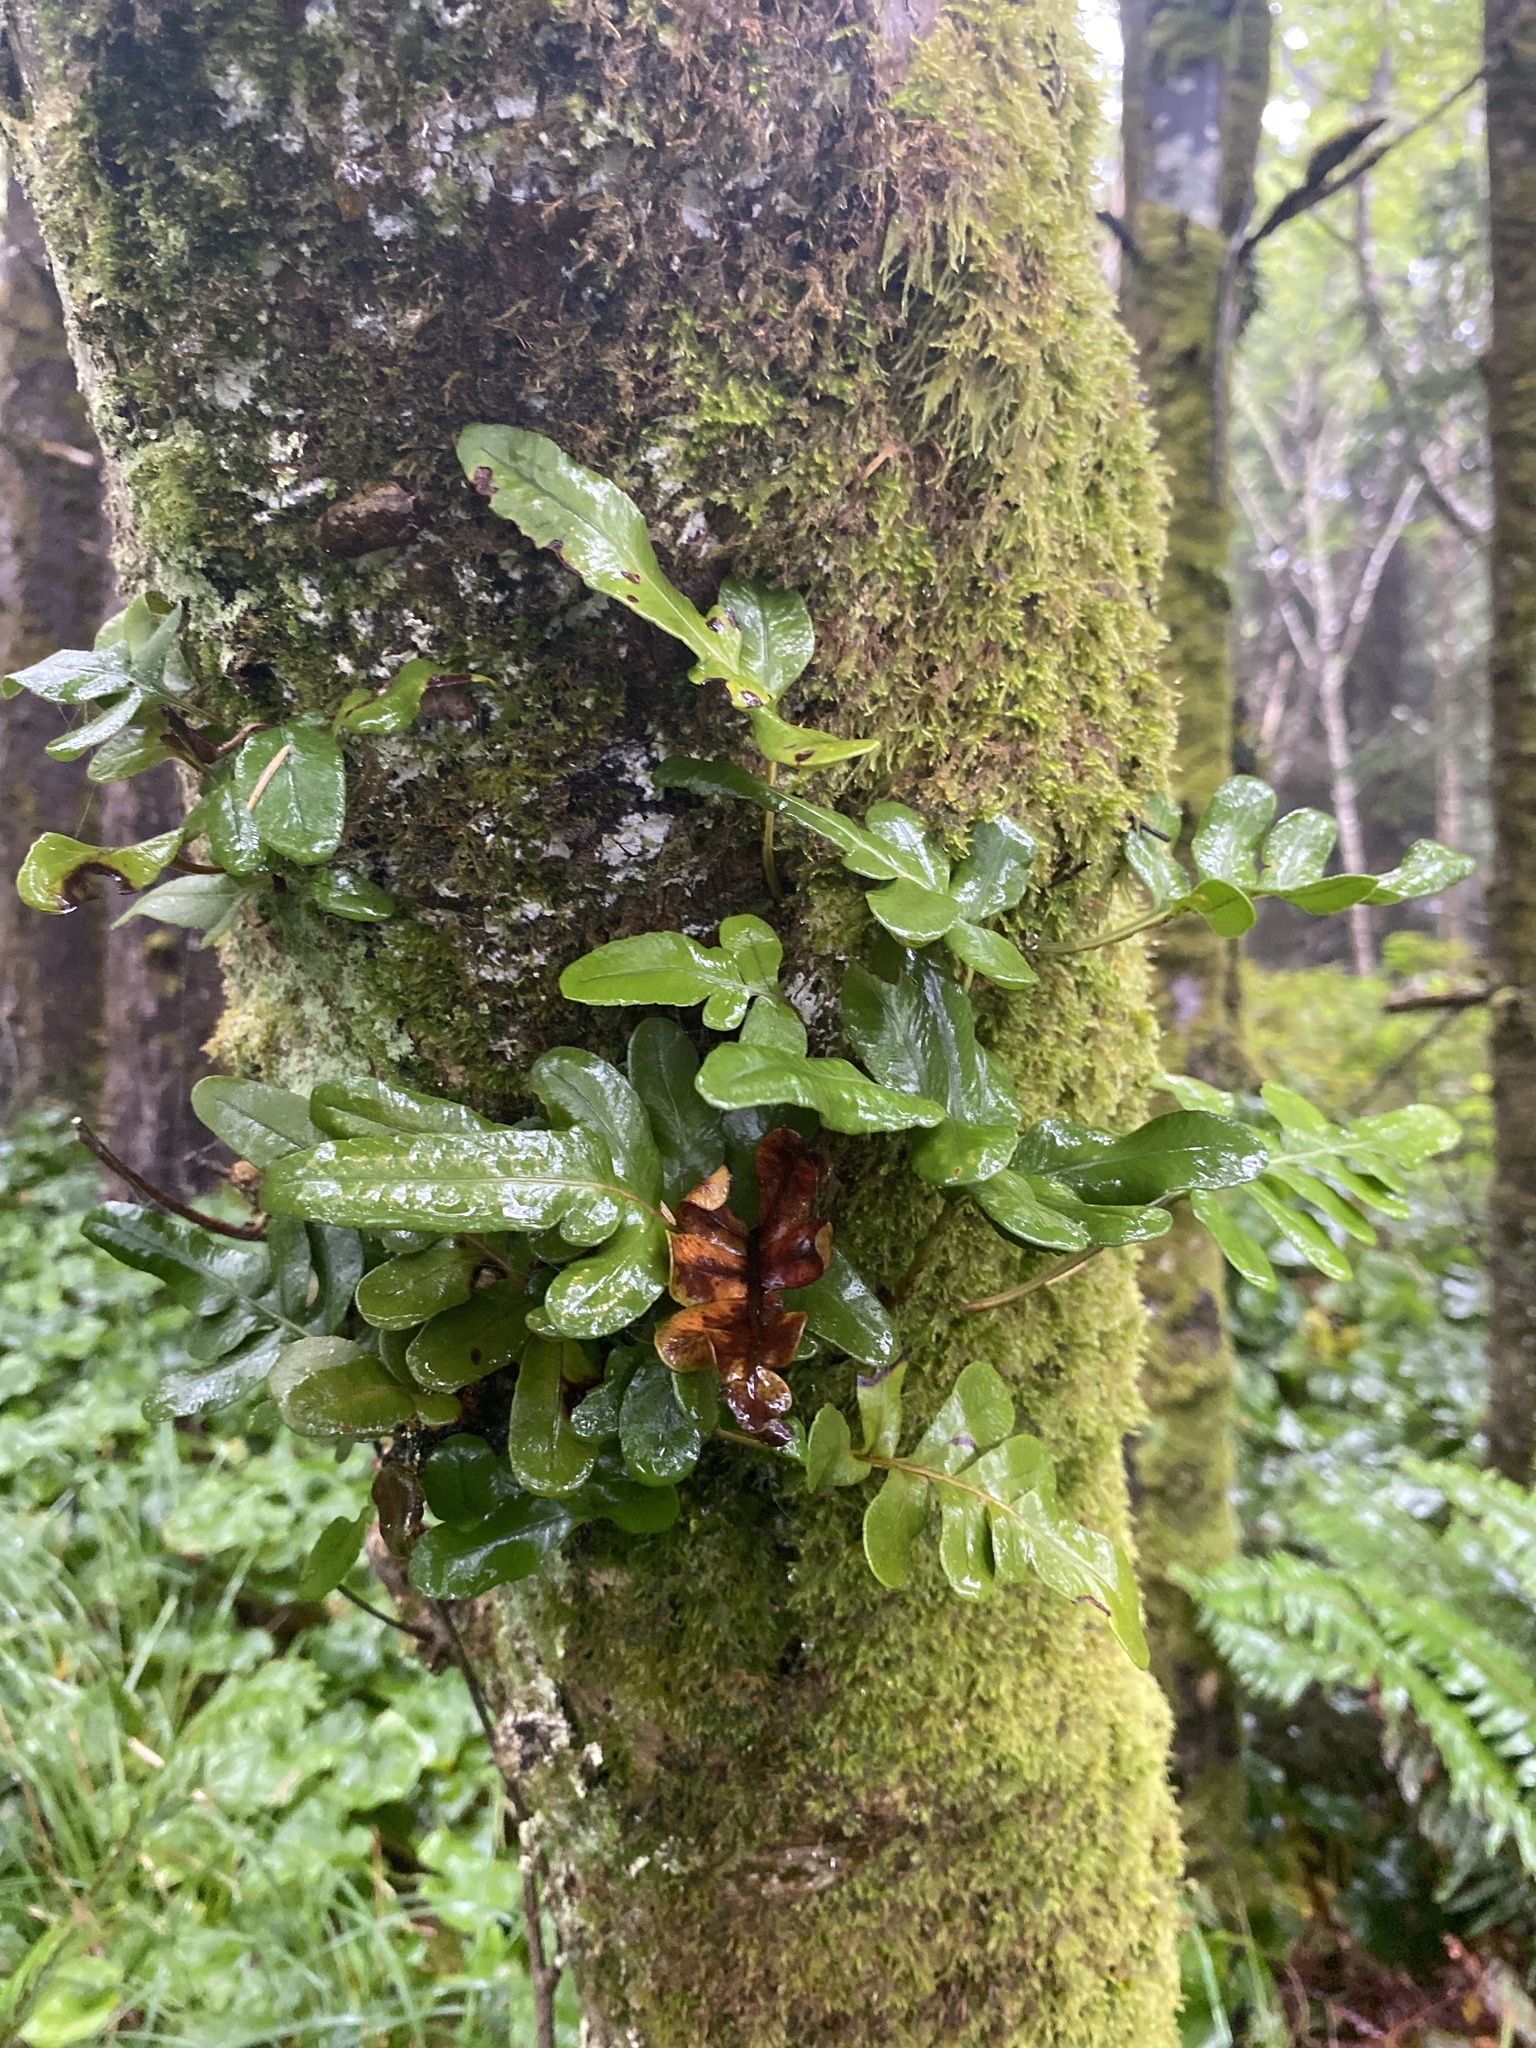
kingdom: Plantae
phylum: Tracheophyta
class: Polypodiopsida
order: Polypodiales
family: Polypodiaceae
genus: Polypodium
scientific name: Polypodium scouleri
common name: Scouler's polypody
